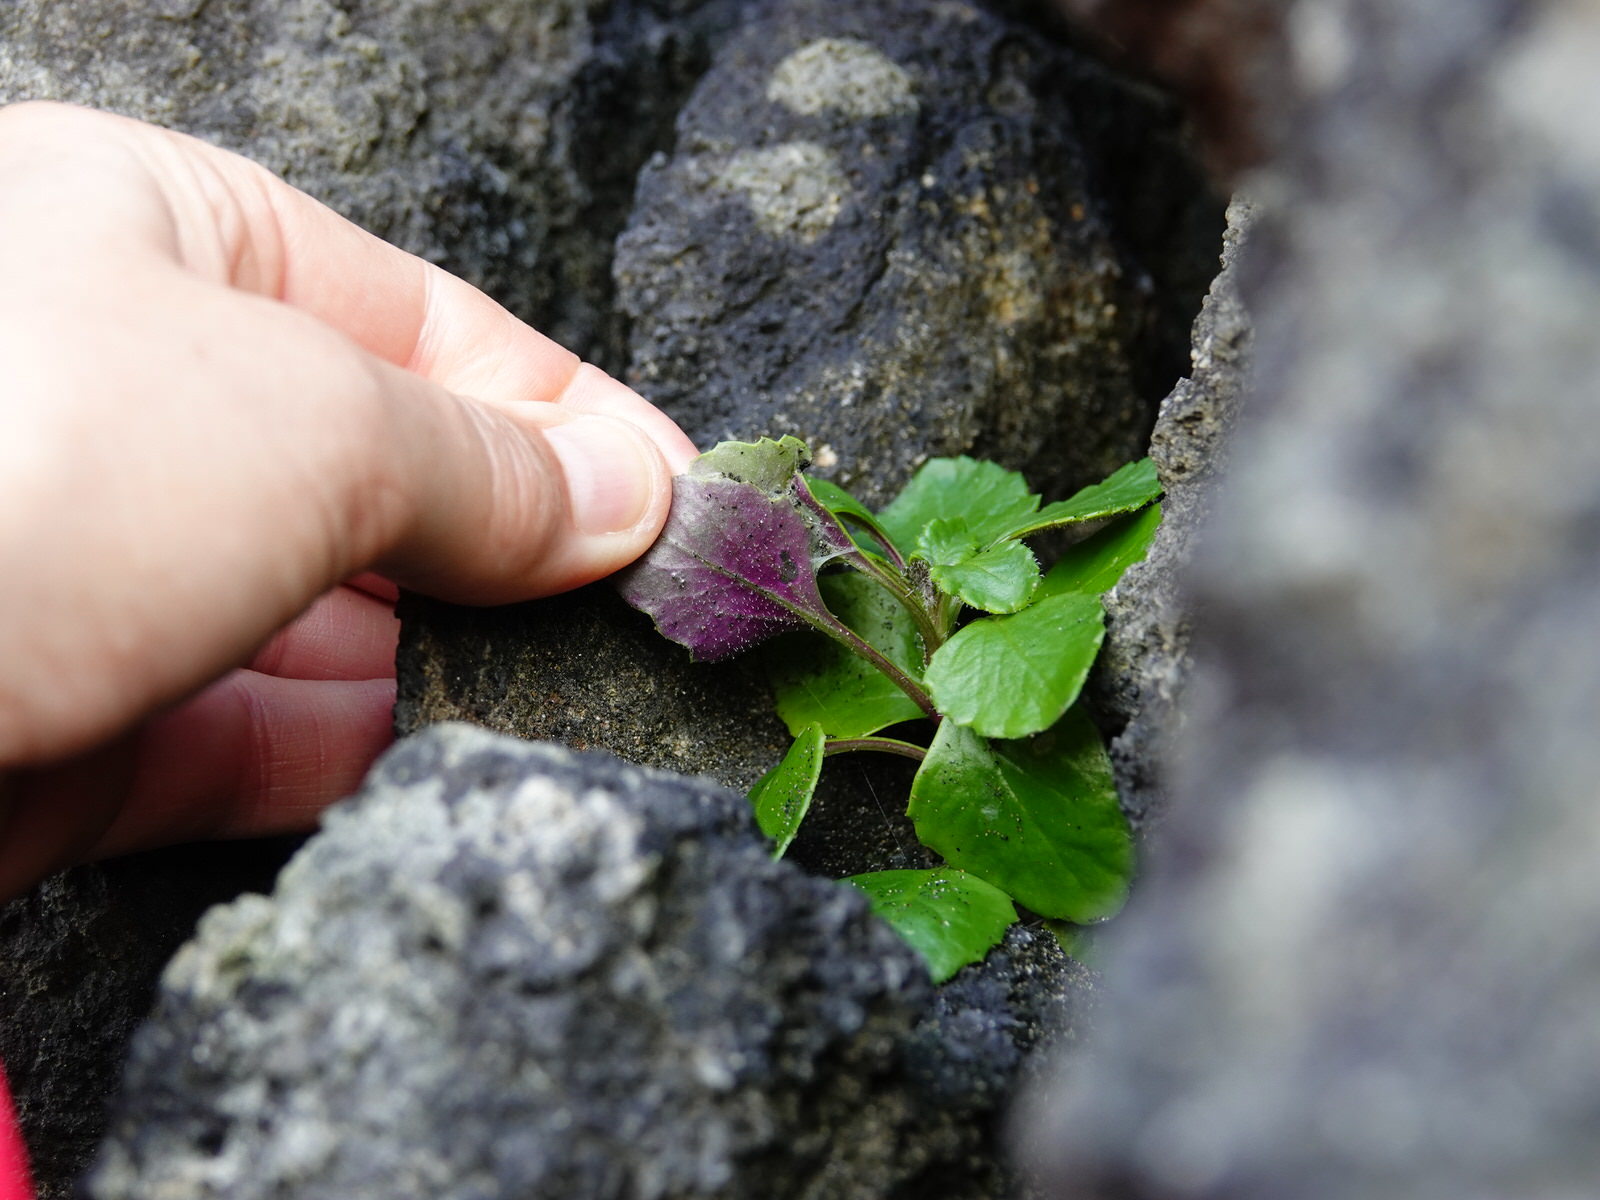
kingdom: Plantae
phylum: Tracheophyta
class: Magnoliopsida
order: Asterales
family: Campanulaceae
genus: Lobelia
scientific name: Lobelia anceps
